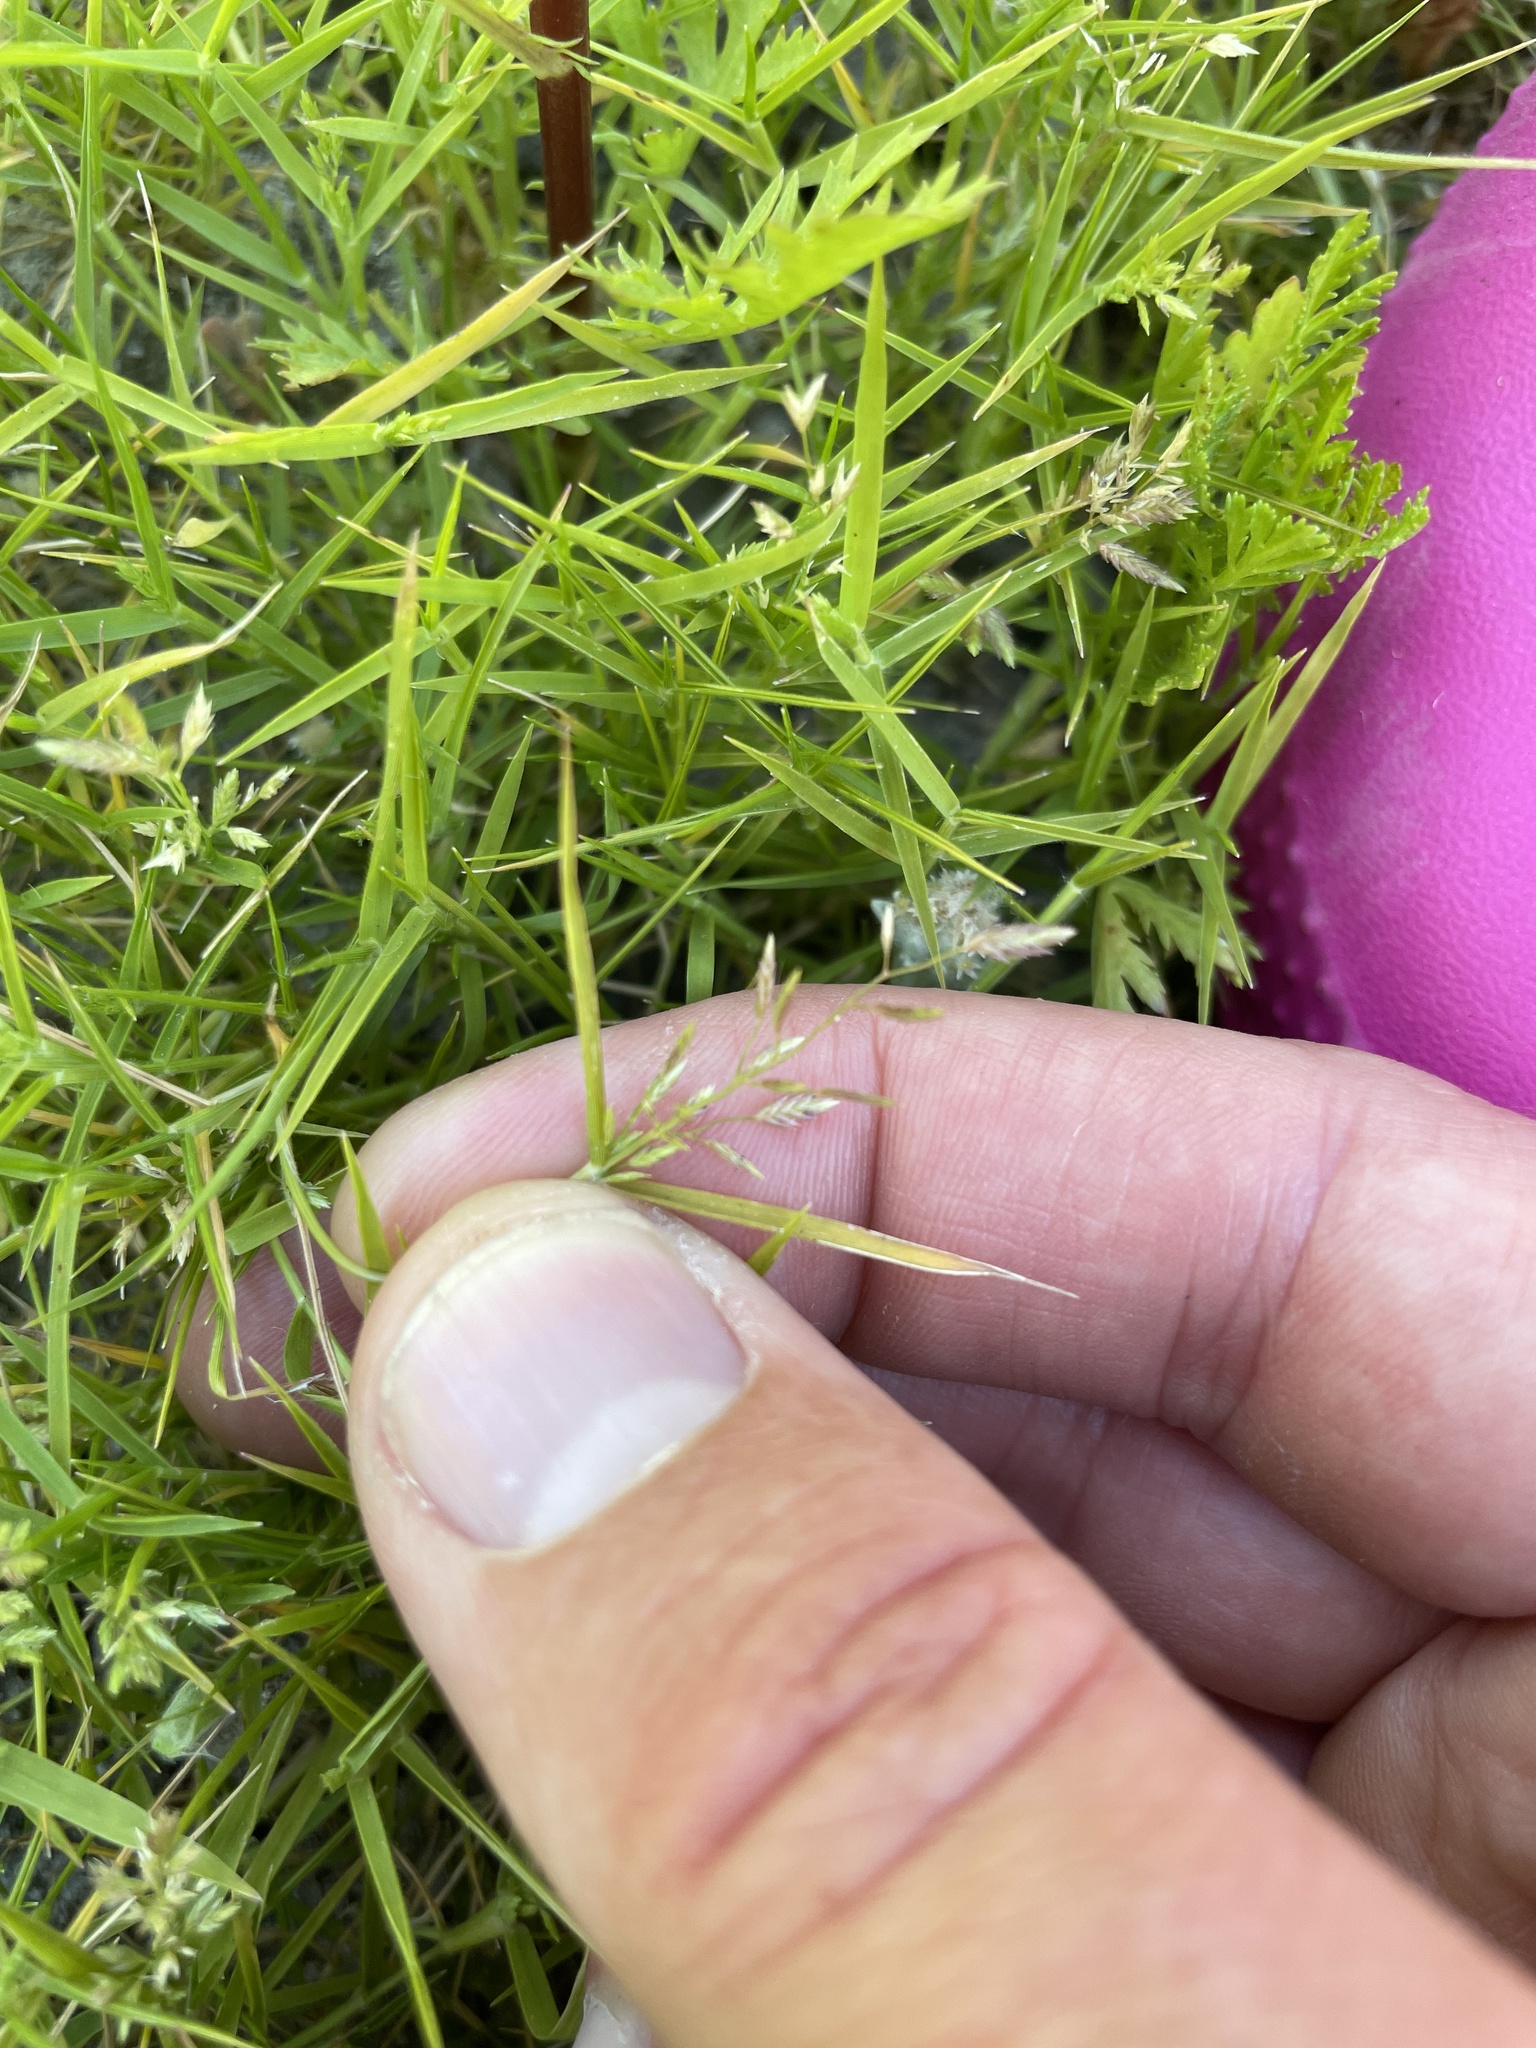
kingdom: Plantae
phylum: Tracheophyta
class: Liliopsida
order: Poales
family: Poaceae
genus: Eragrostis
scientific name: Eragrostis hypnoides
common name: Creeping love grass
